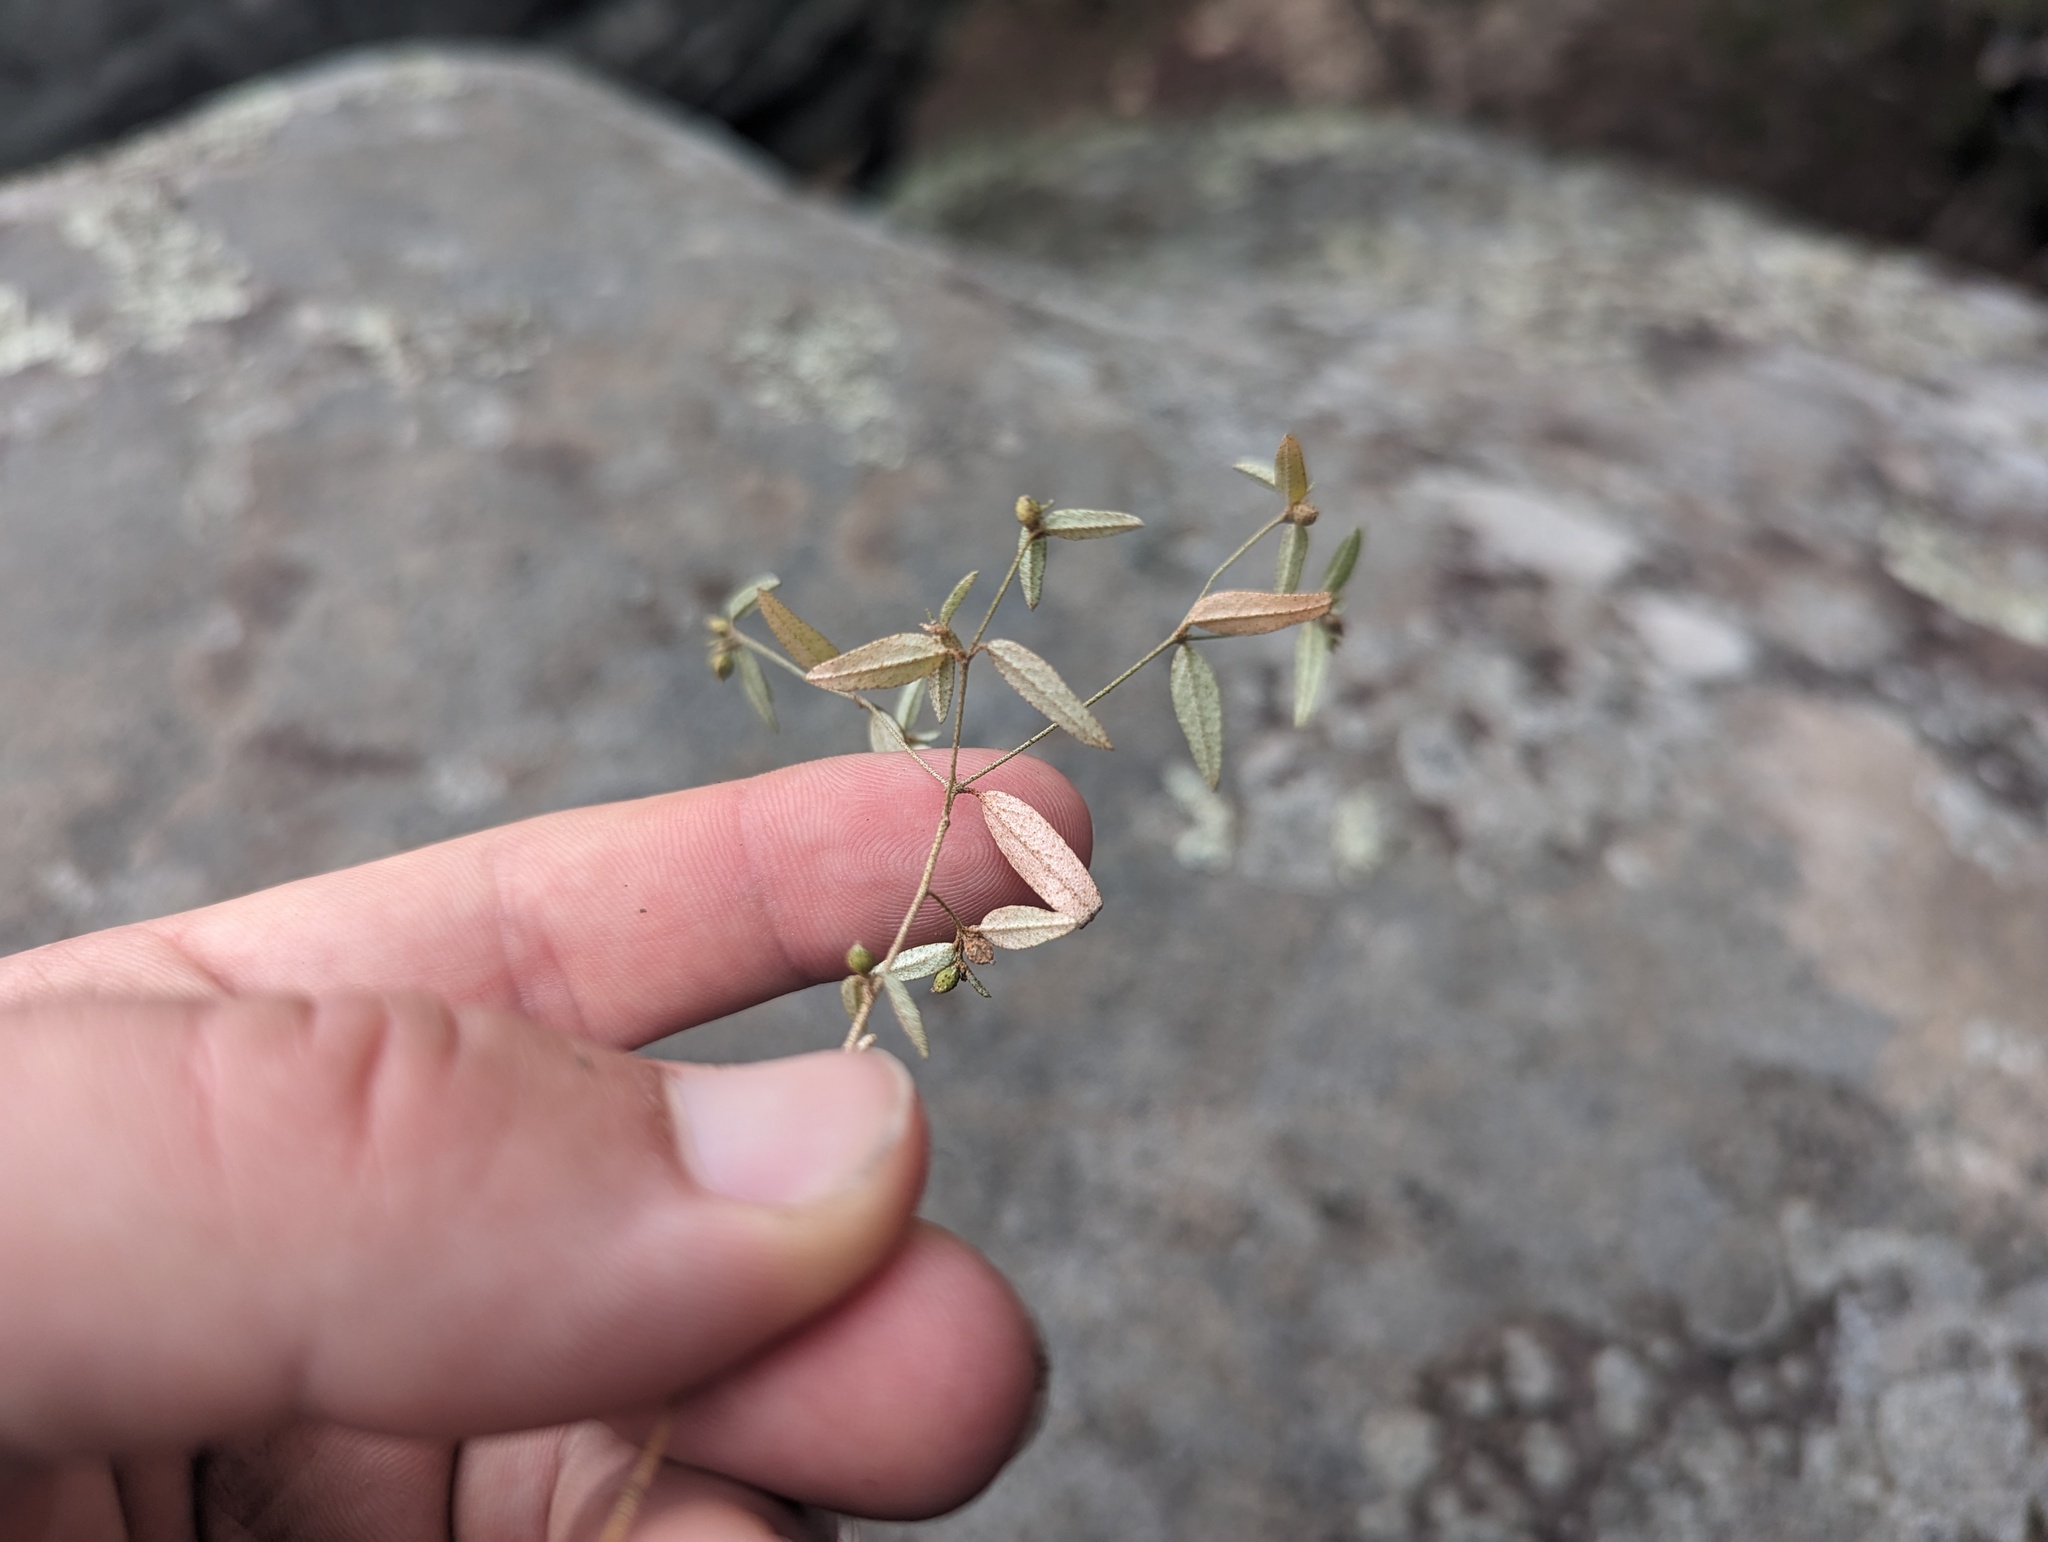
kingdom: Plantae
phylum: Tracheophyta
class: Magnoliopsida
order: Malpighiales
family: Euphorbiaceae
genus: Croton
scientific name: Croton michauxii
